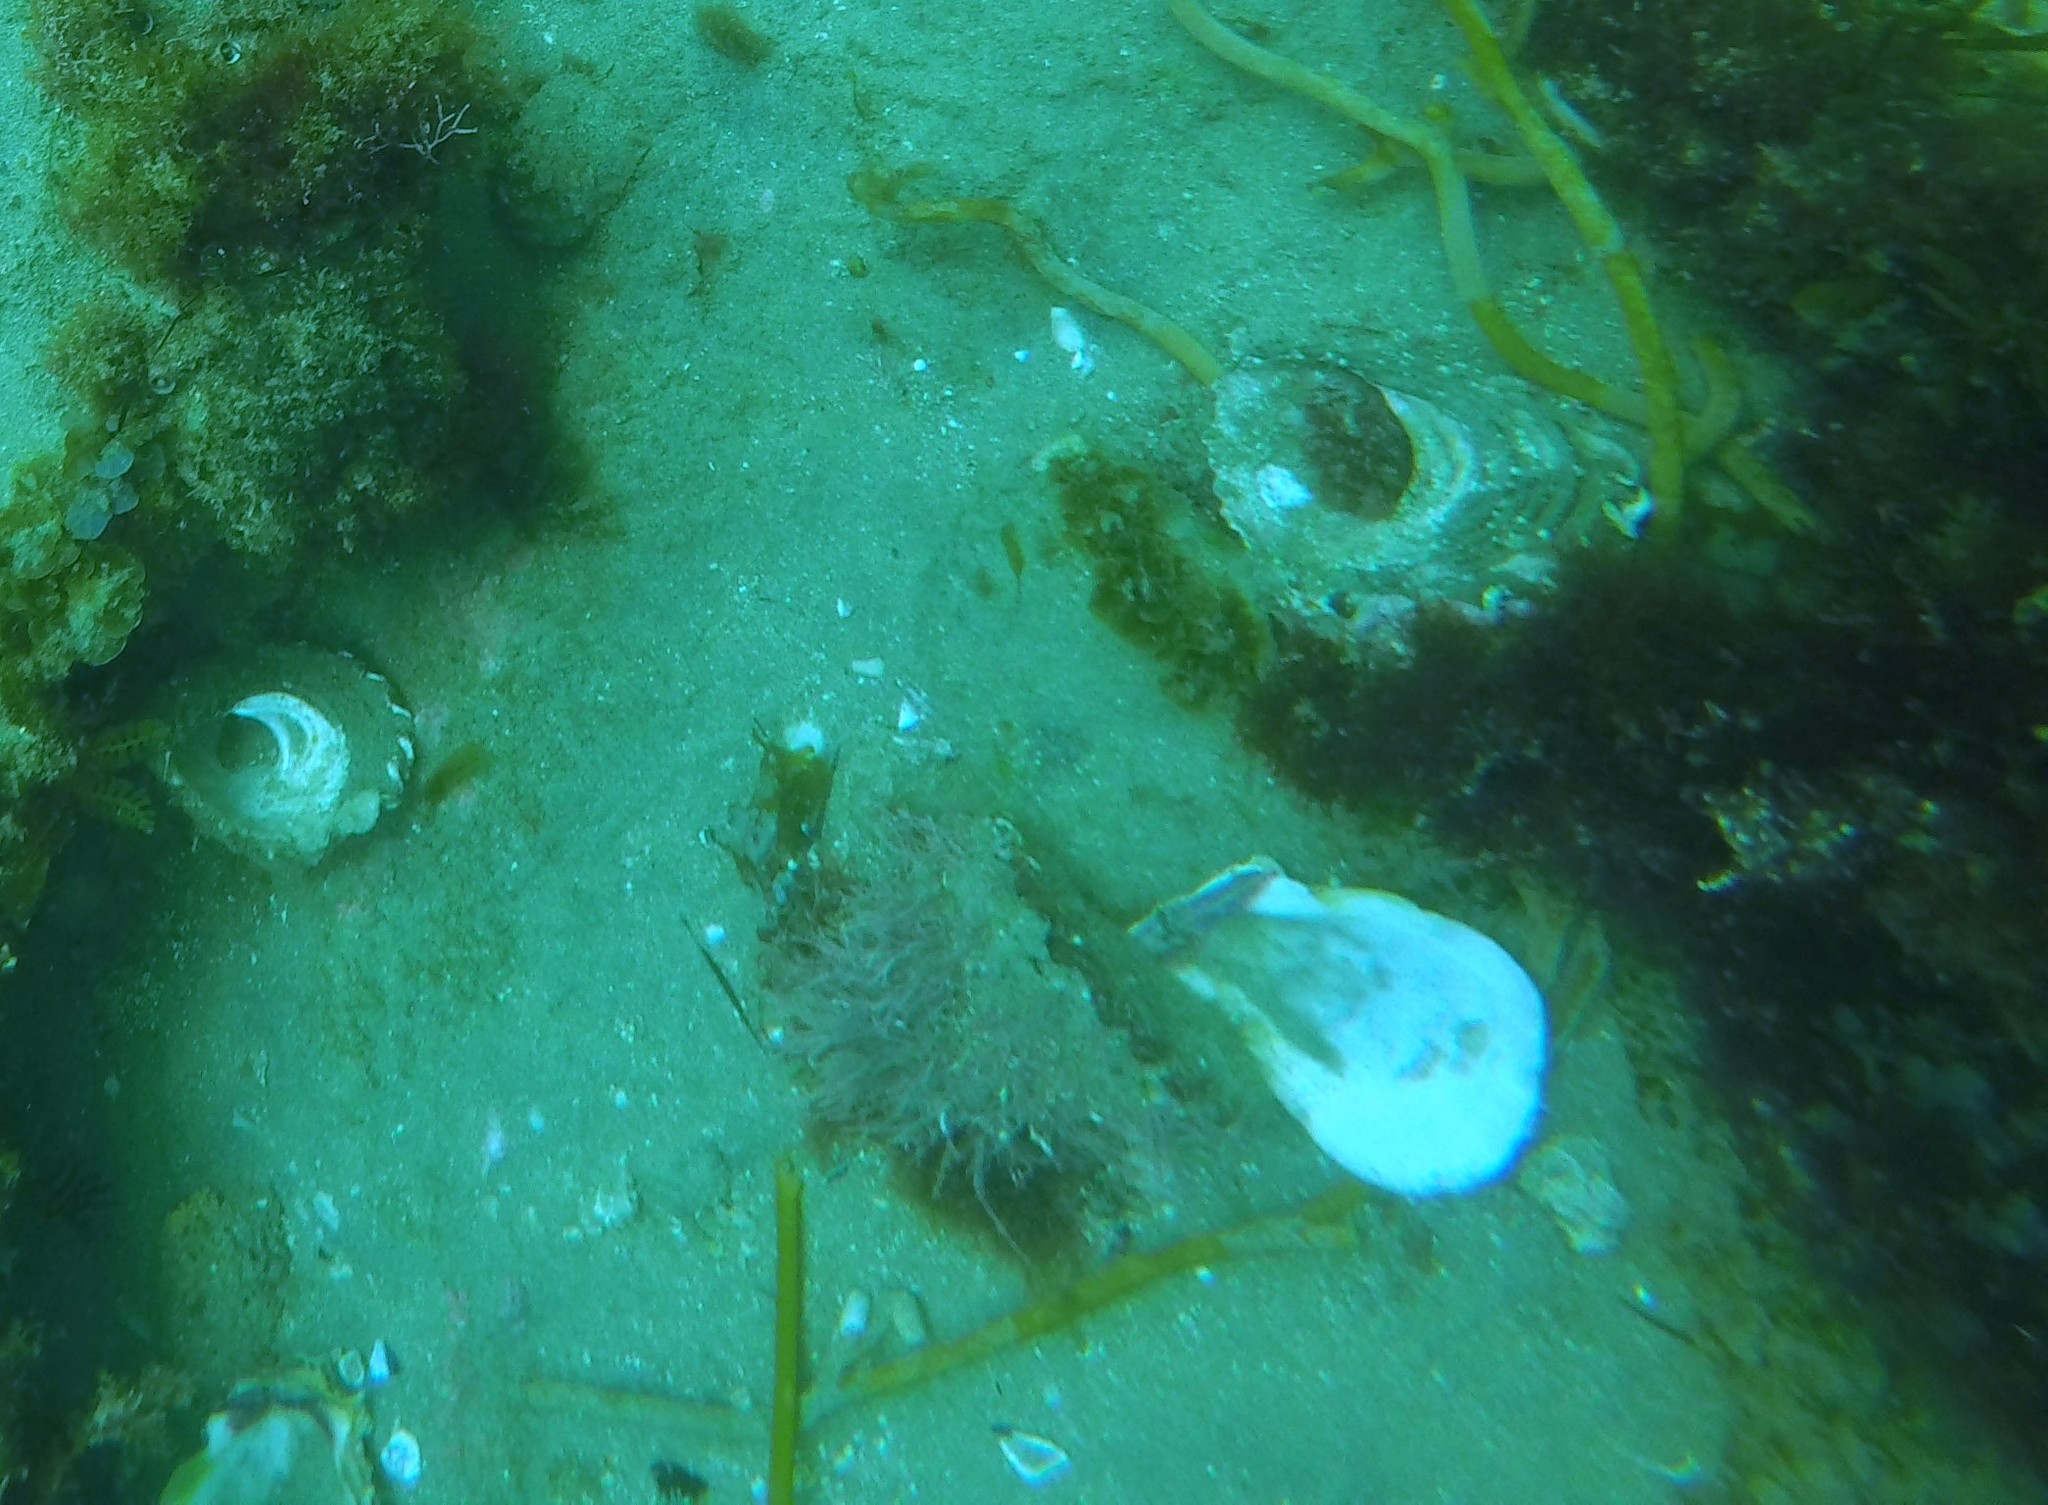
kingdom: Animalia
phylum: Mollusca
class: Gastropoda
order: Trochida
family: Turbinidae
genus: Megastraea
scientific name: Megastraea undosa
